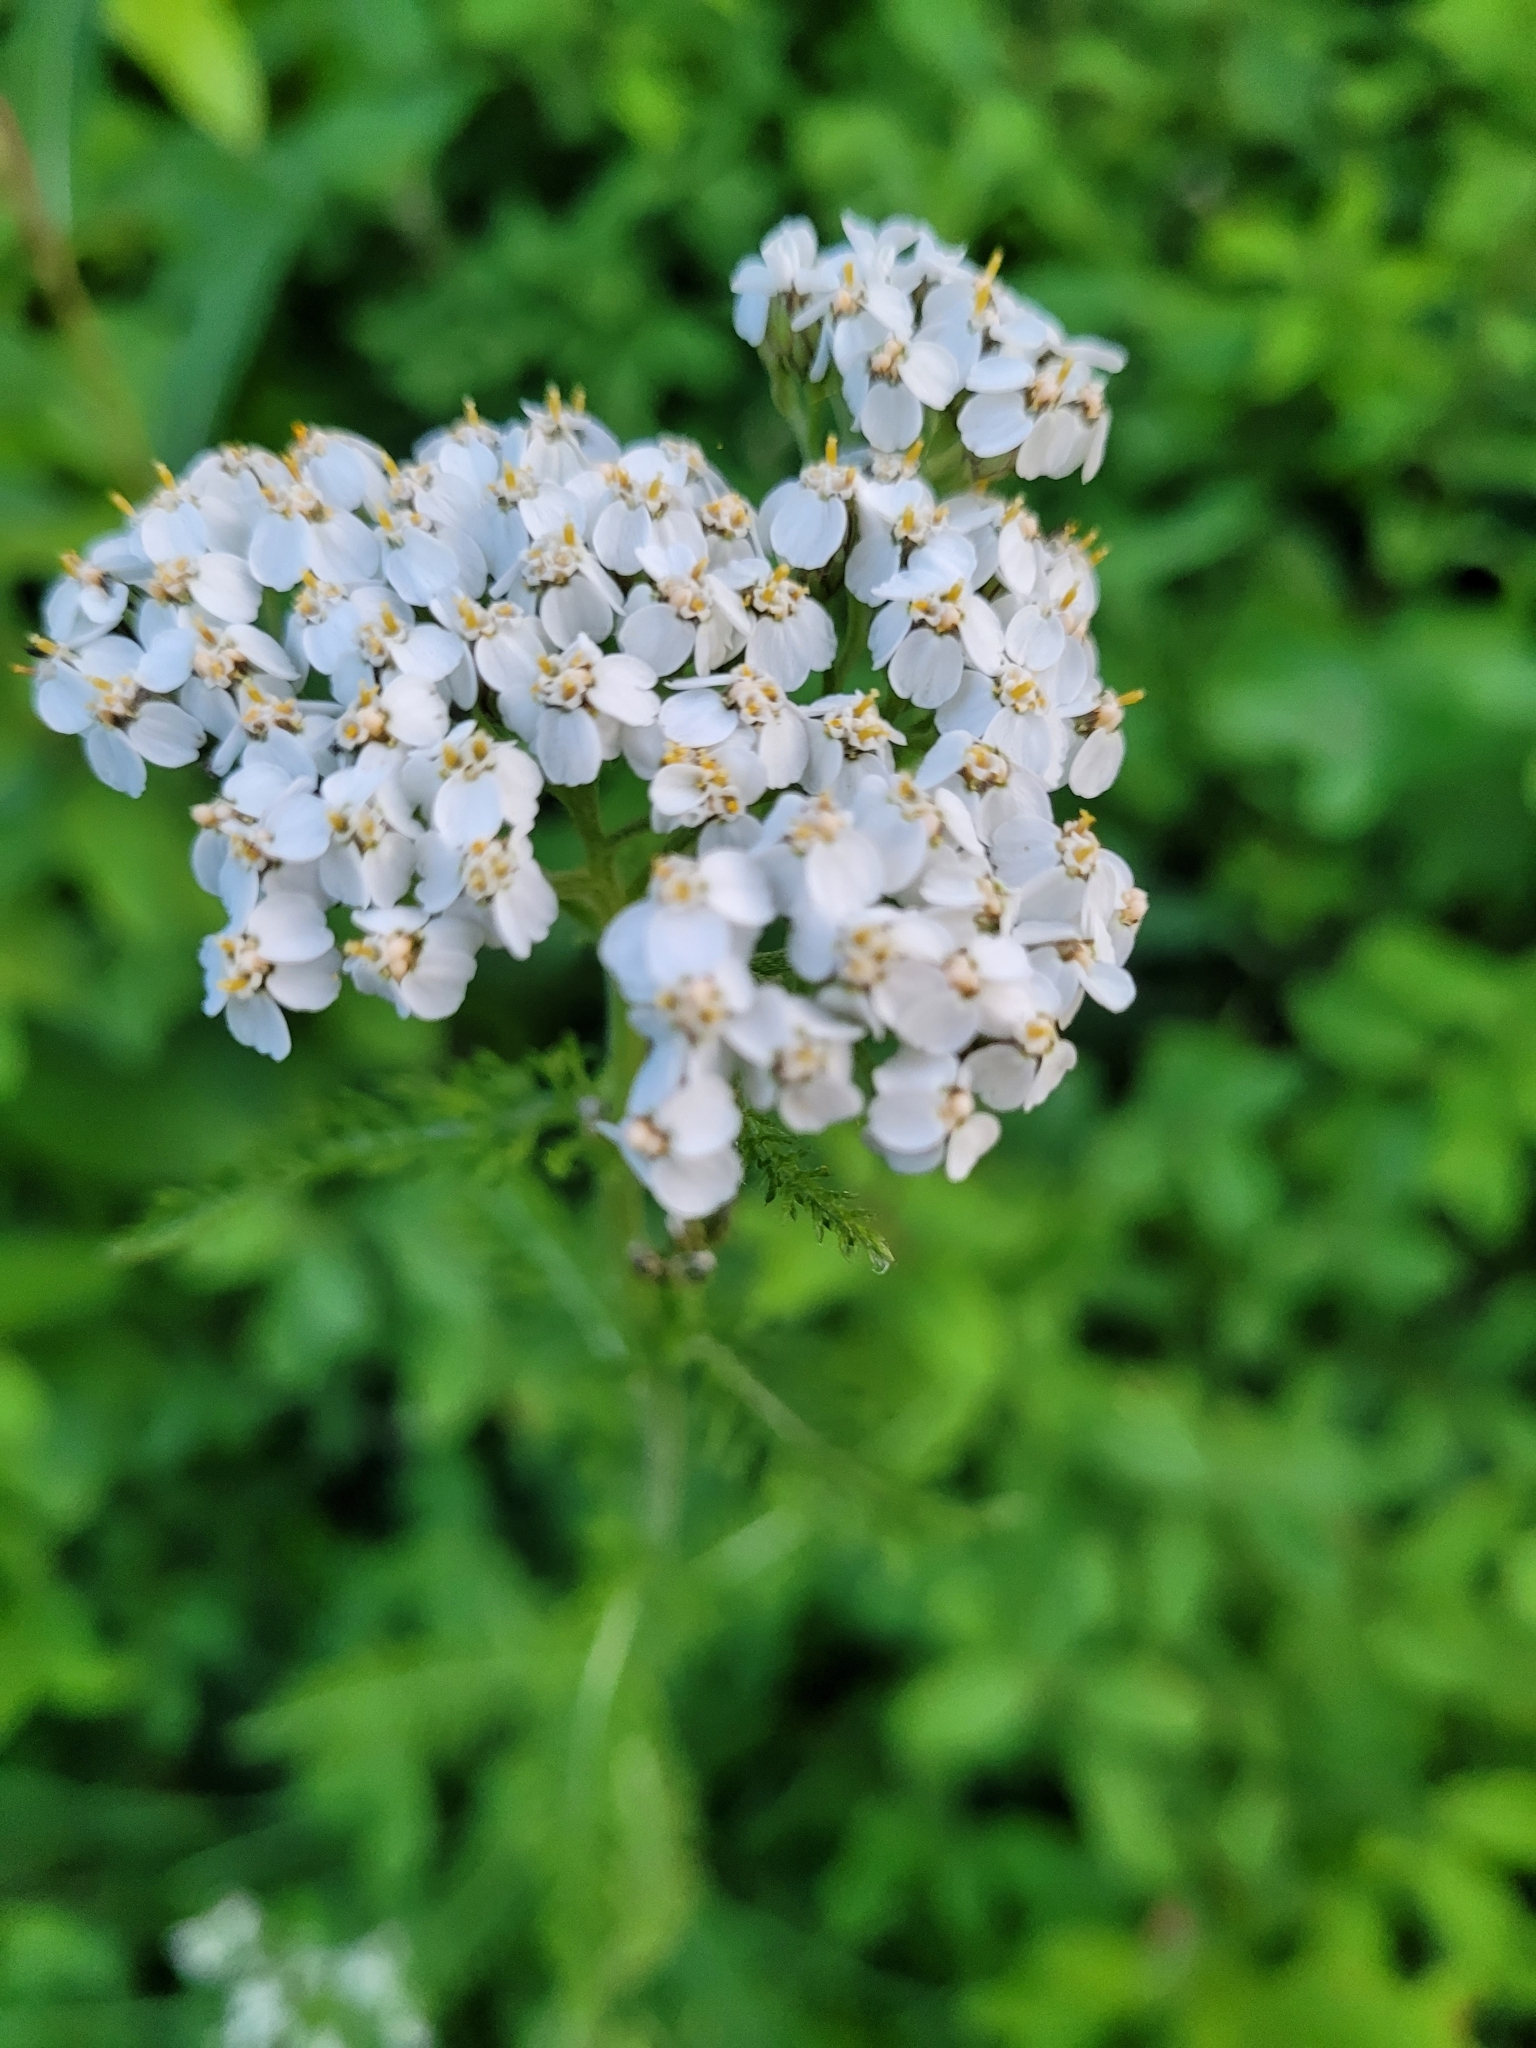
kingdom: Plantae
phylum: Tracheophyta
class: Magnoliopsida
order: Asterales
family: Asteraceae
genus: Achillea
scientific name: Achillea millefolium
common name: Yarrow
